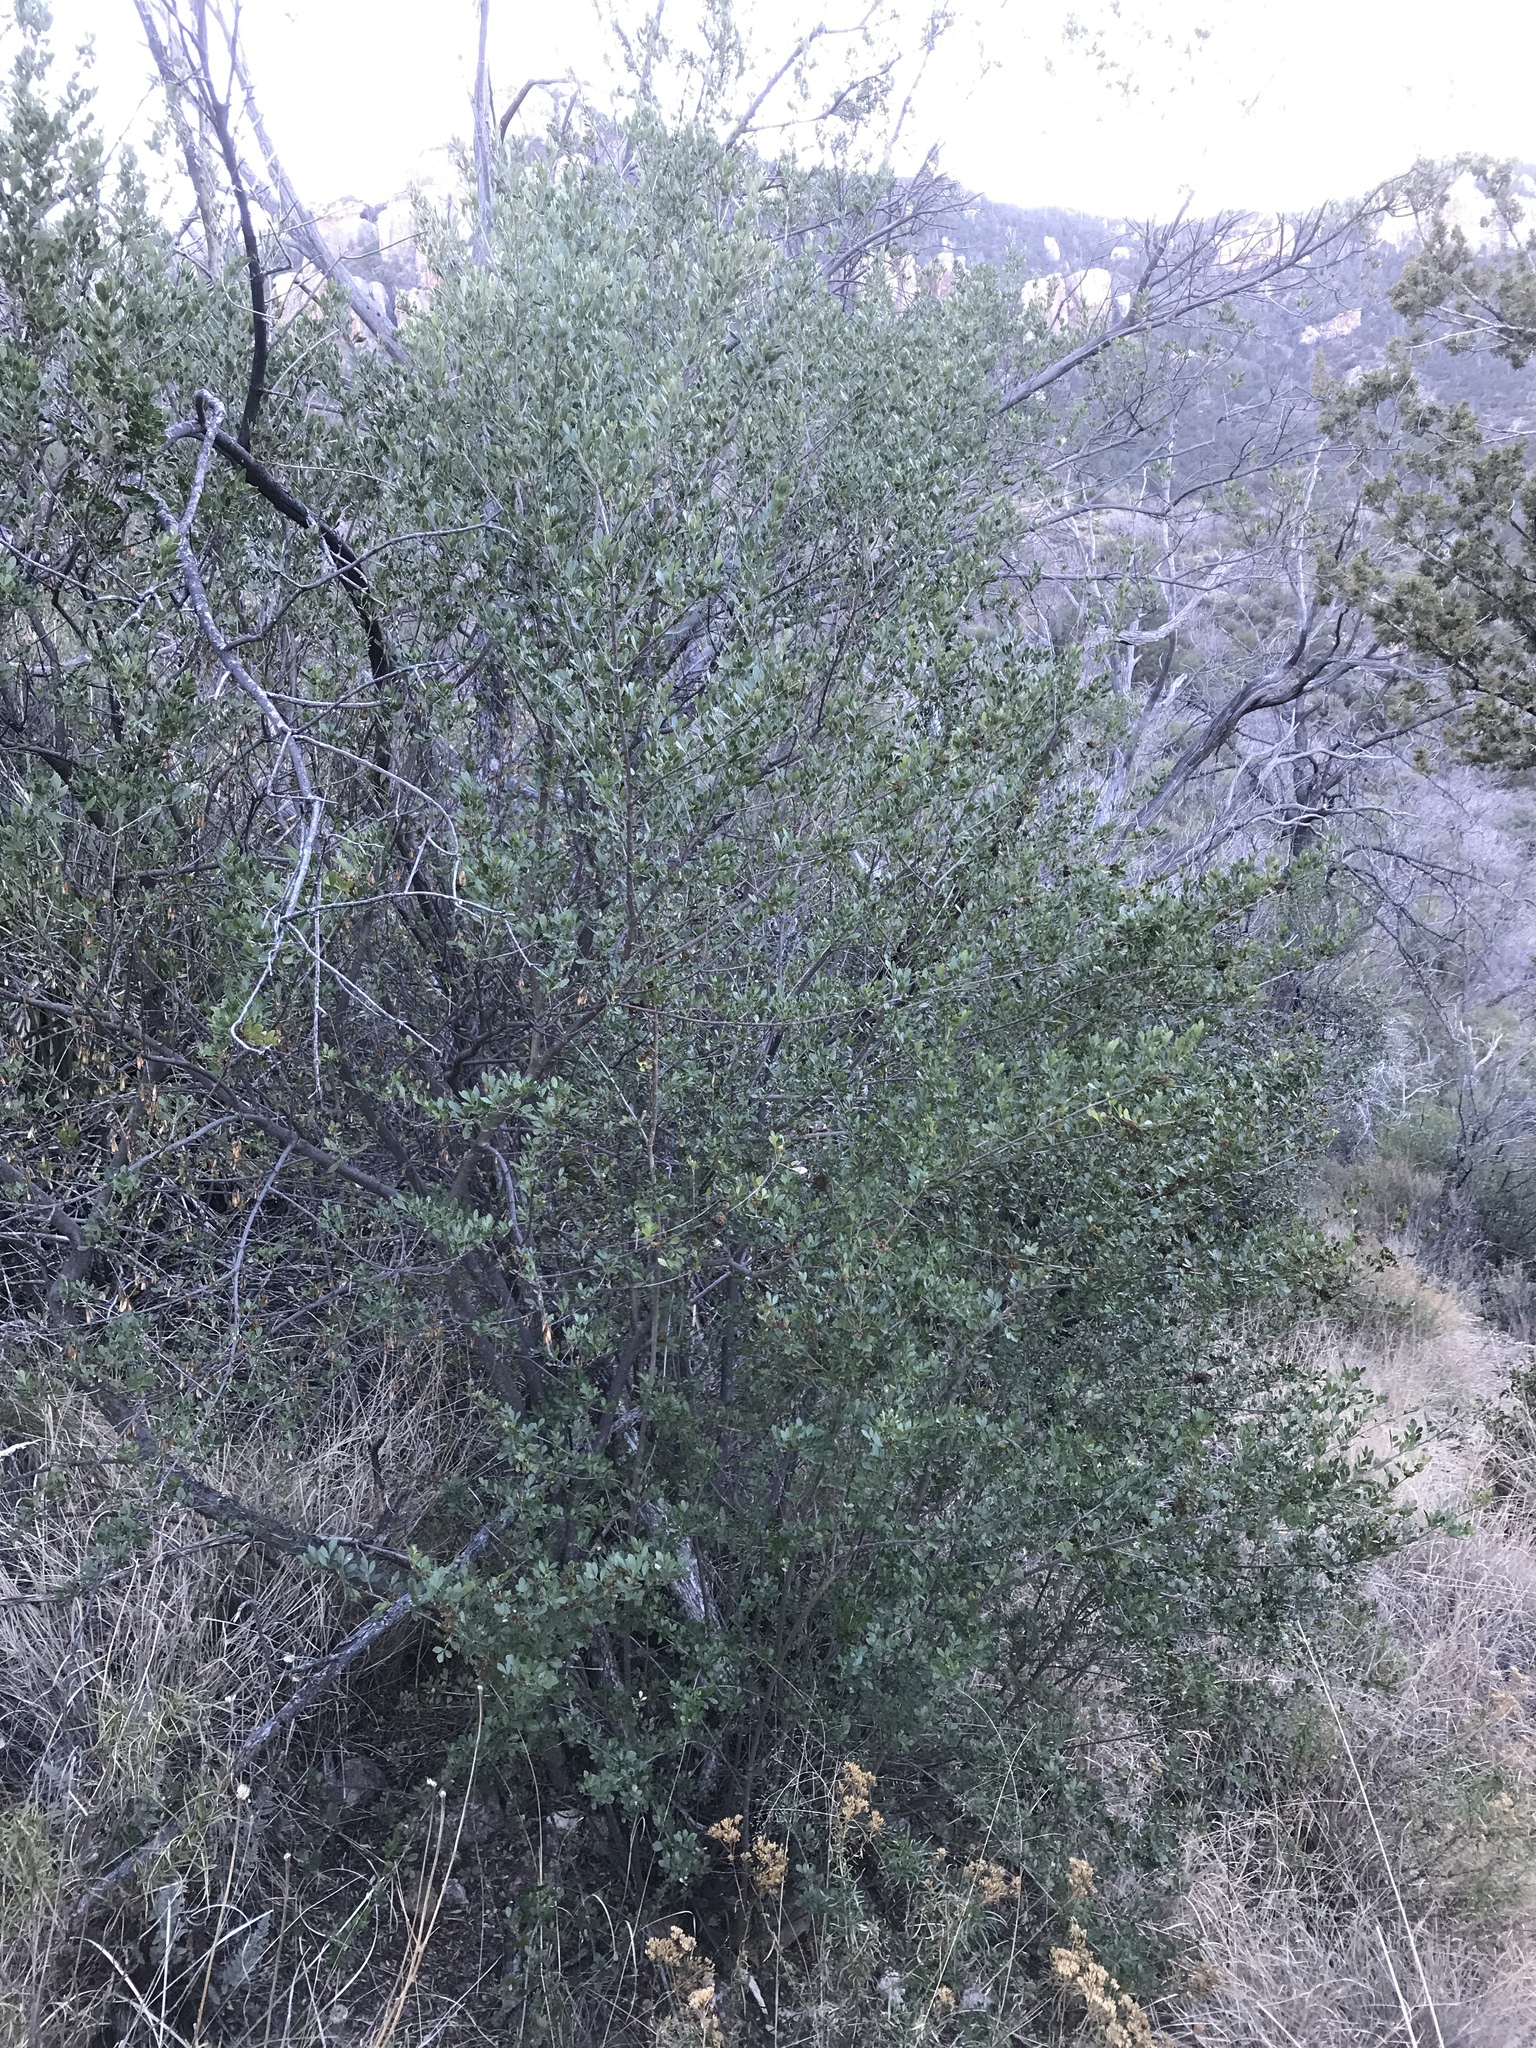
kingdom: Plantae
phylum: Tracheophyta
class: Magnoliopsida
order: Lamiales
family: Oleaceae
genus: Fraxinus
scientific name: Fraxinus greggii
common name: Gregg ash
